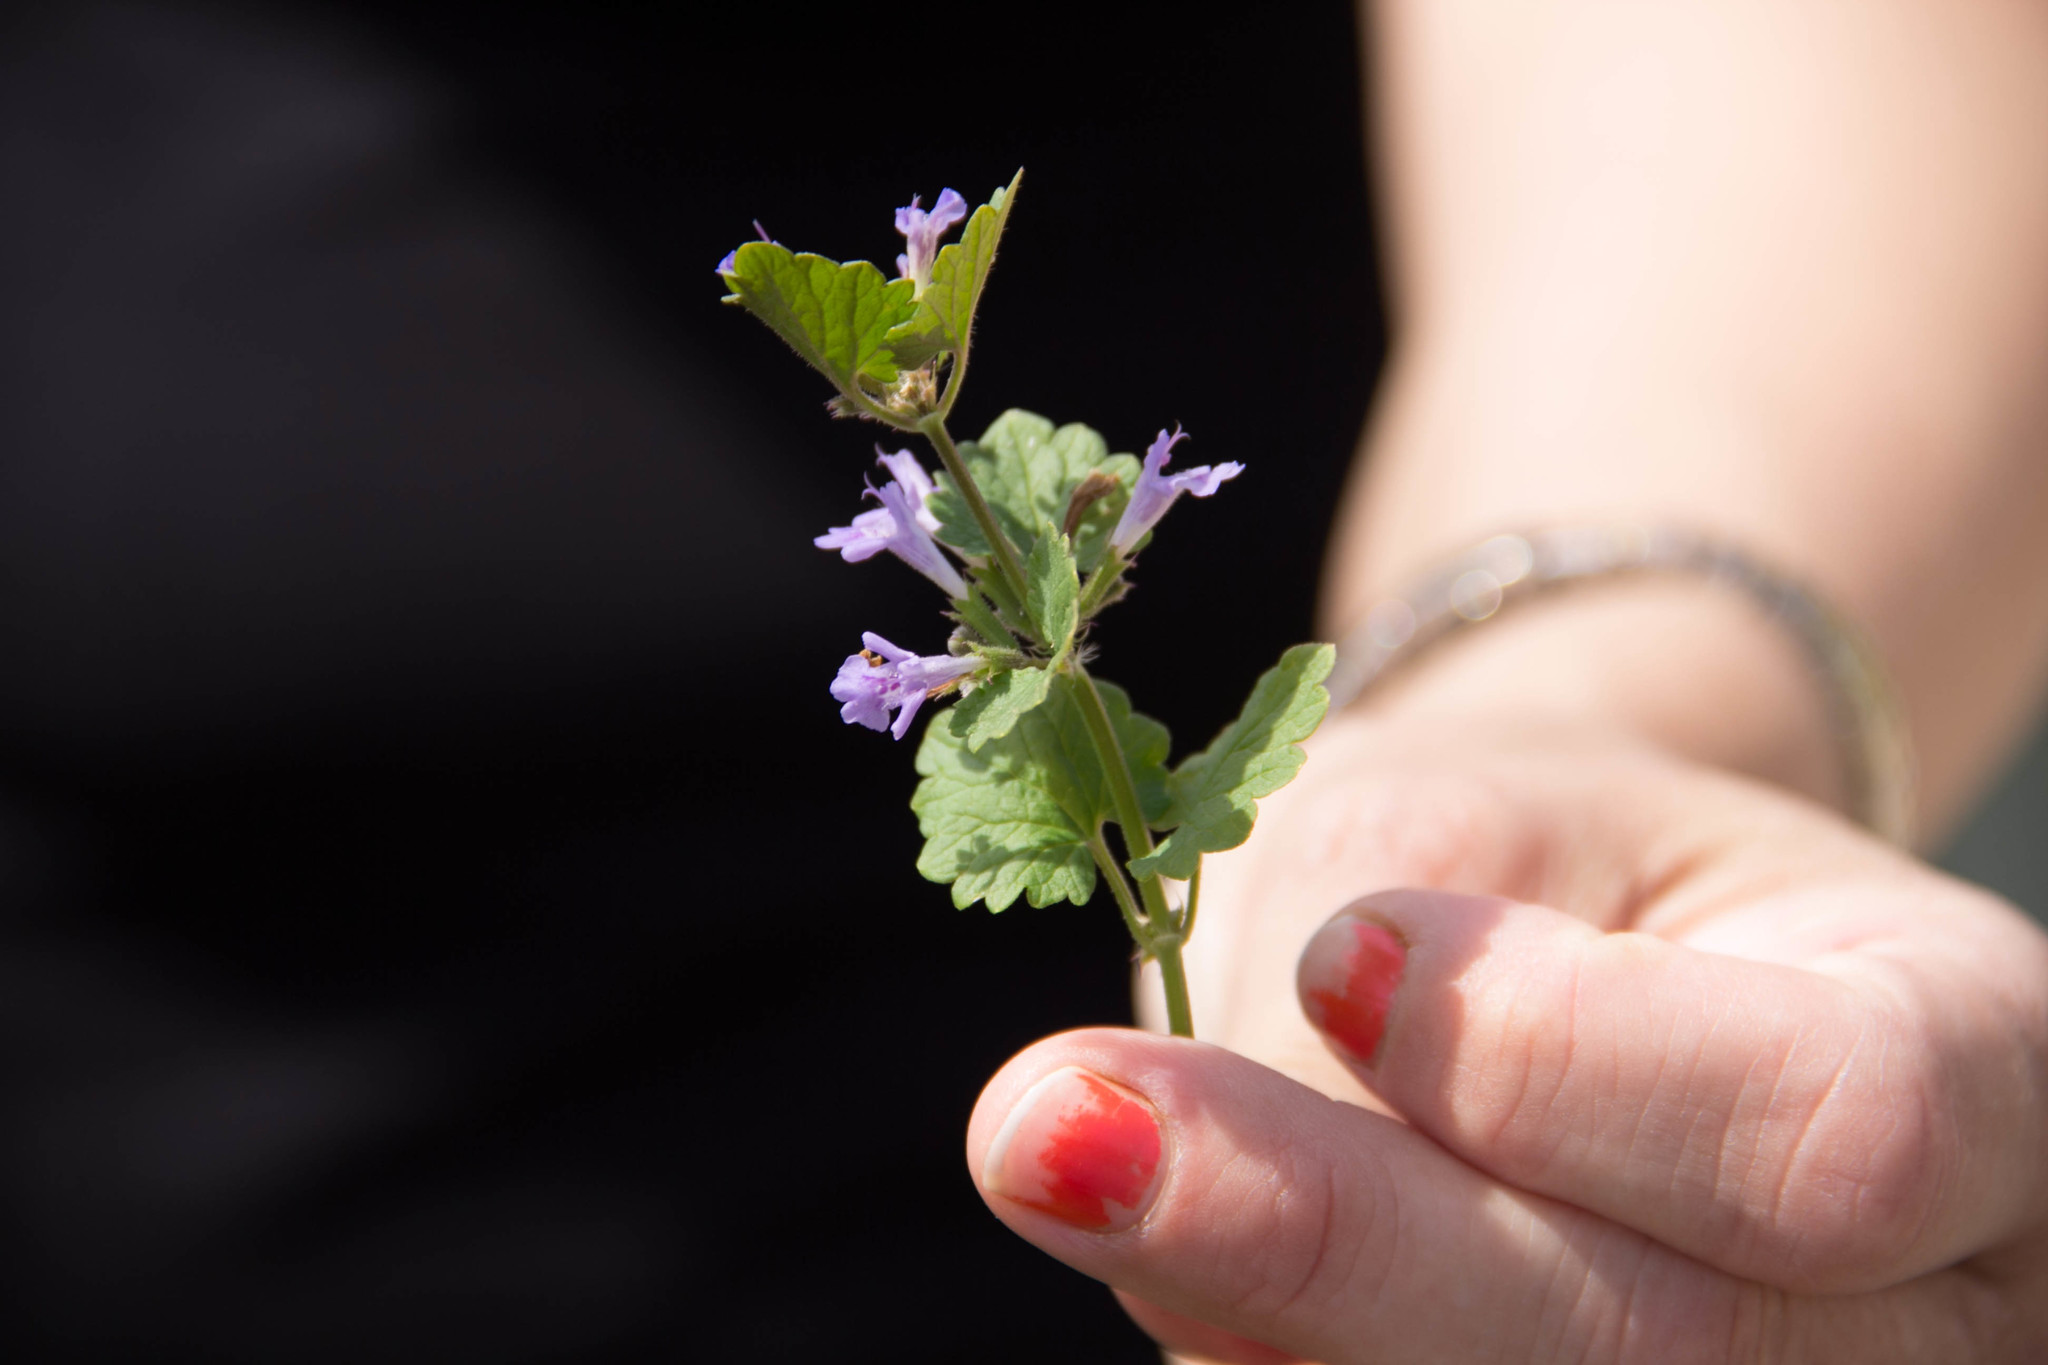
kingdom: Plantae
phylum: Tracheophyta
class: Magnoliopsida
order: Lamiales
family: Lamiaceae
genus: Glechoma
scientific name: Glechoma hederacea
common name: Ground ivy
